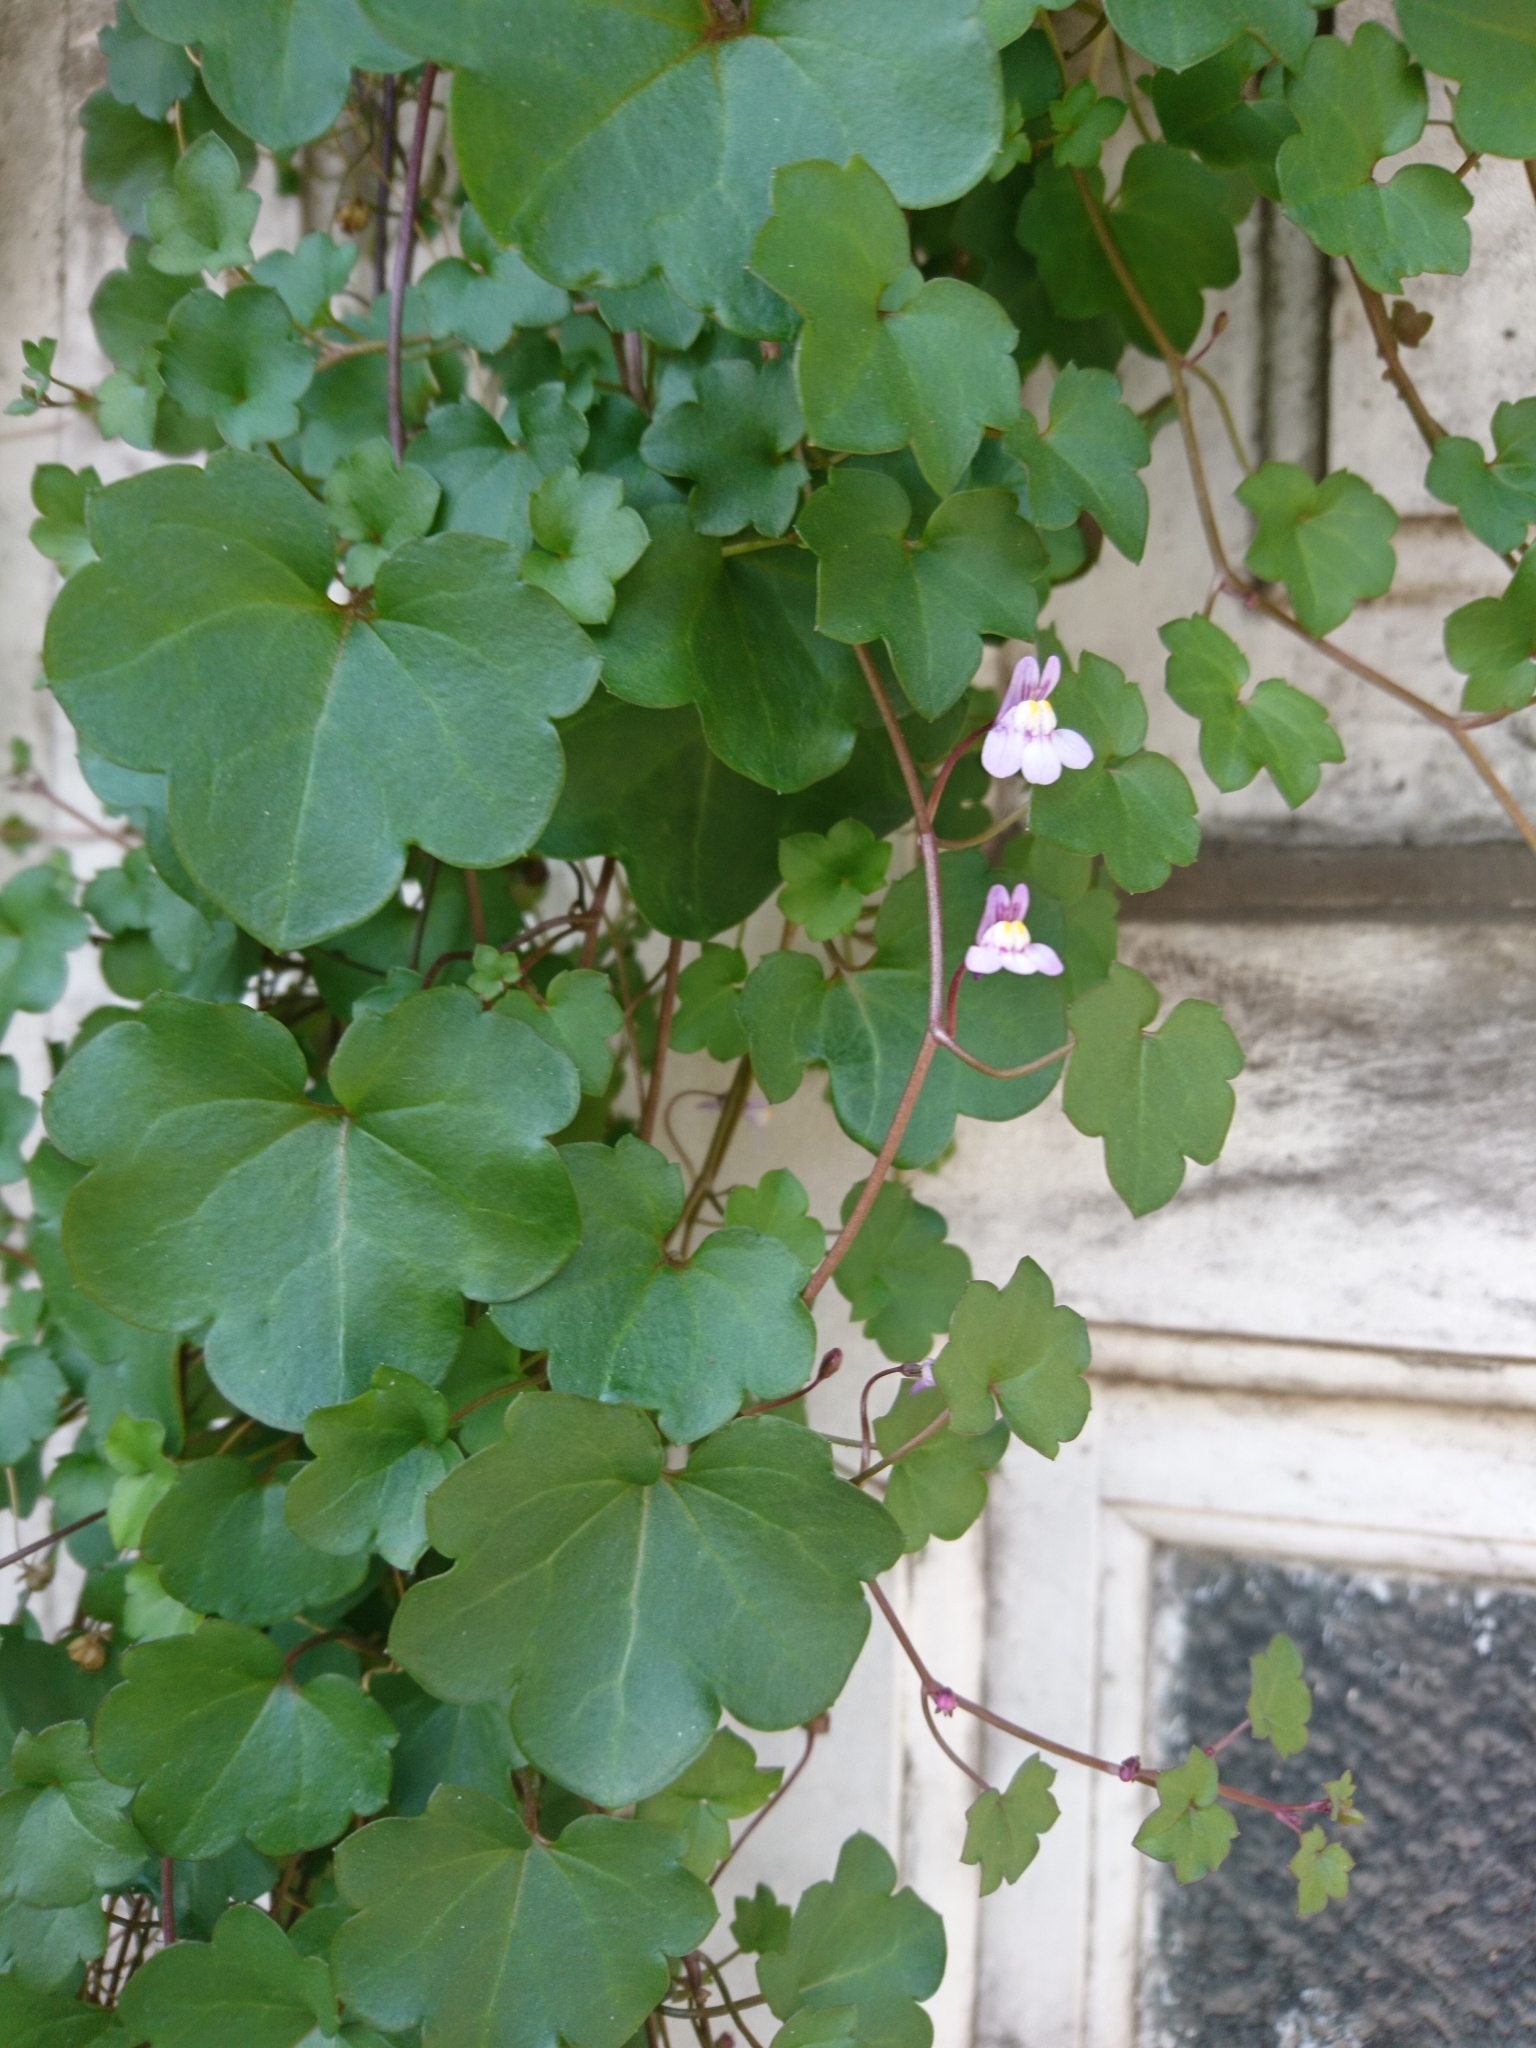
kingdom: Plantae
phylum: Tracheophyta
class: Magnoliopsida
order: Lamiales
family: Plantaginaceae
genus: Cymbalaria
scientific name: Cymbalaria muralis
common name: Ivy-leaved toadflax
